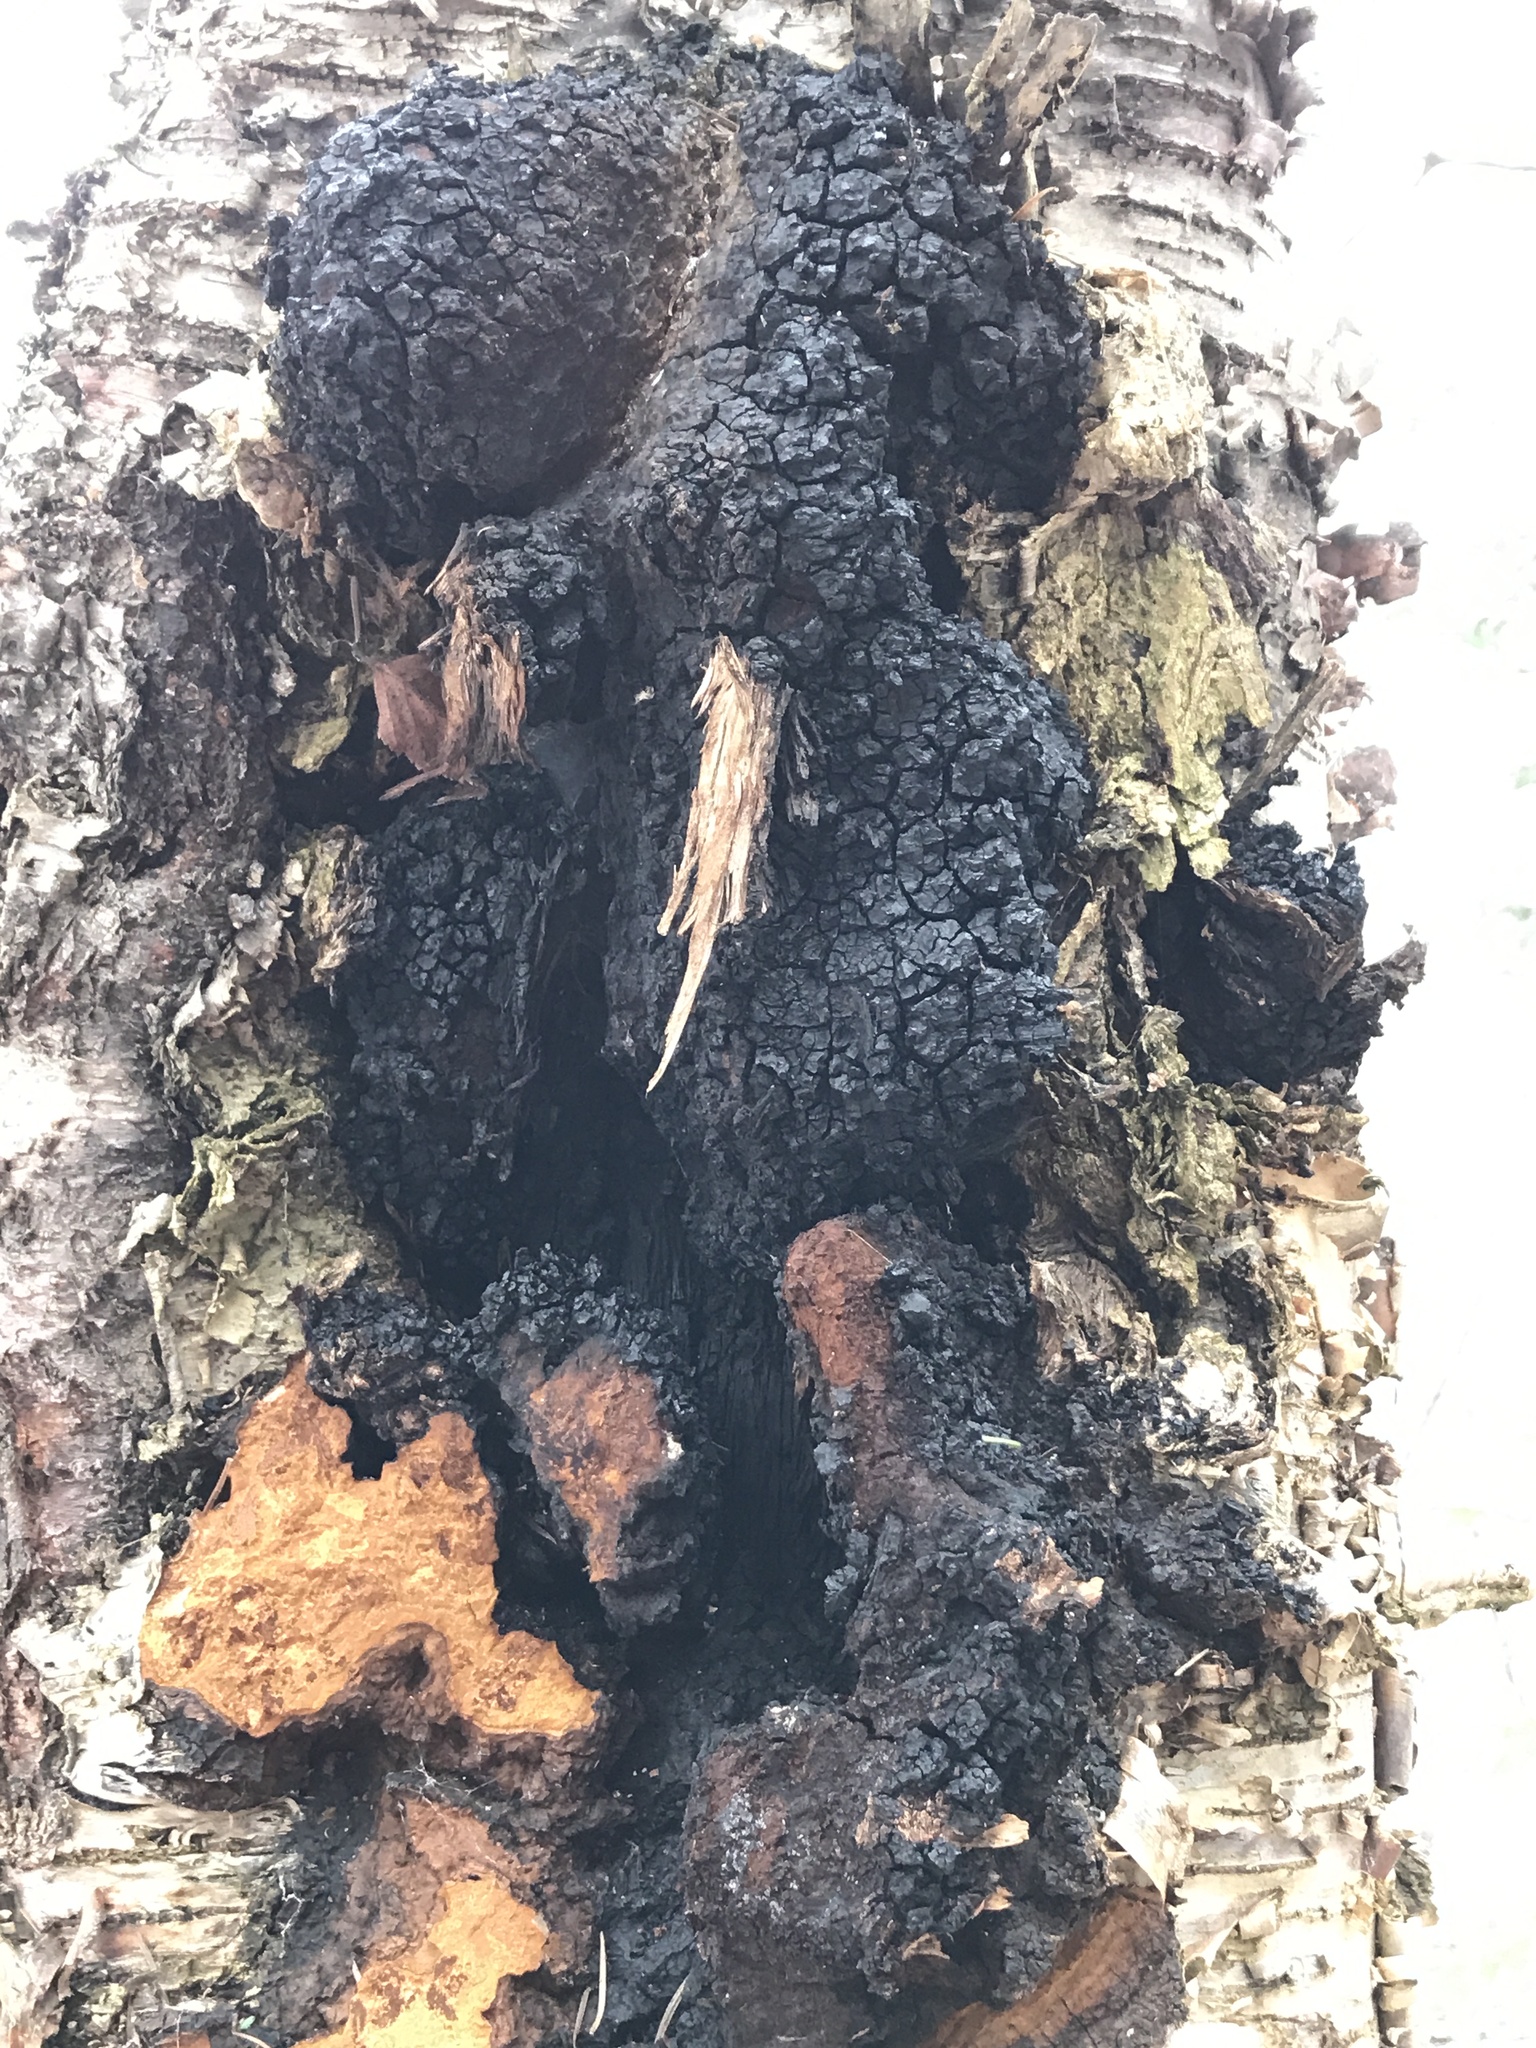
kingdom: Fungi
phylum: Basidiomycota
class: Agaricomycetes
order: Hymenochaetales
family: Hymenochaetaceae
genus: Inonotus
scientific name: Inonotus obliquus
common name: Chaga
